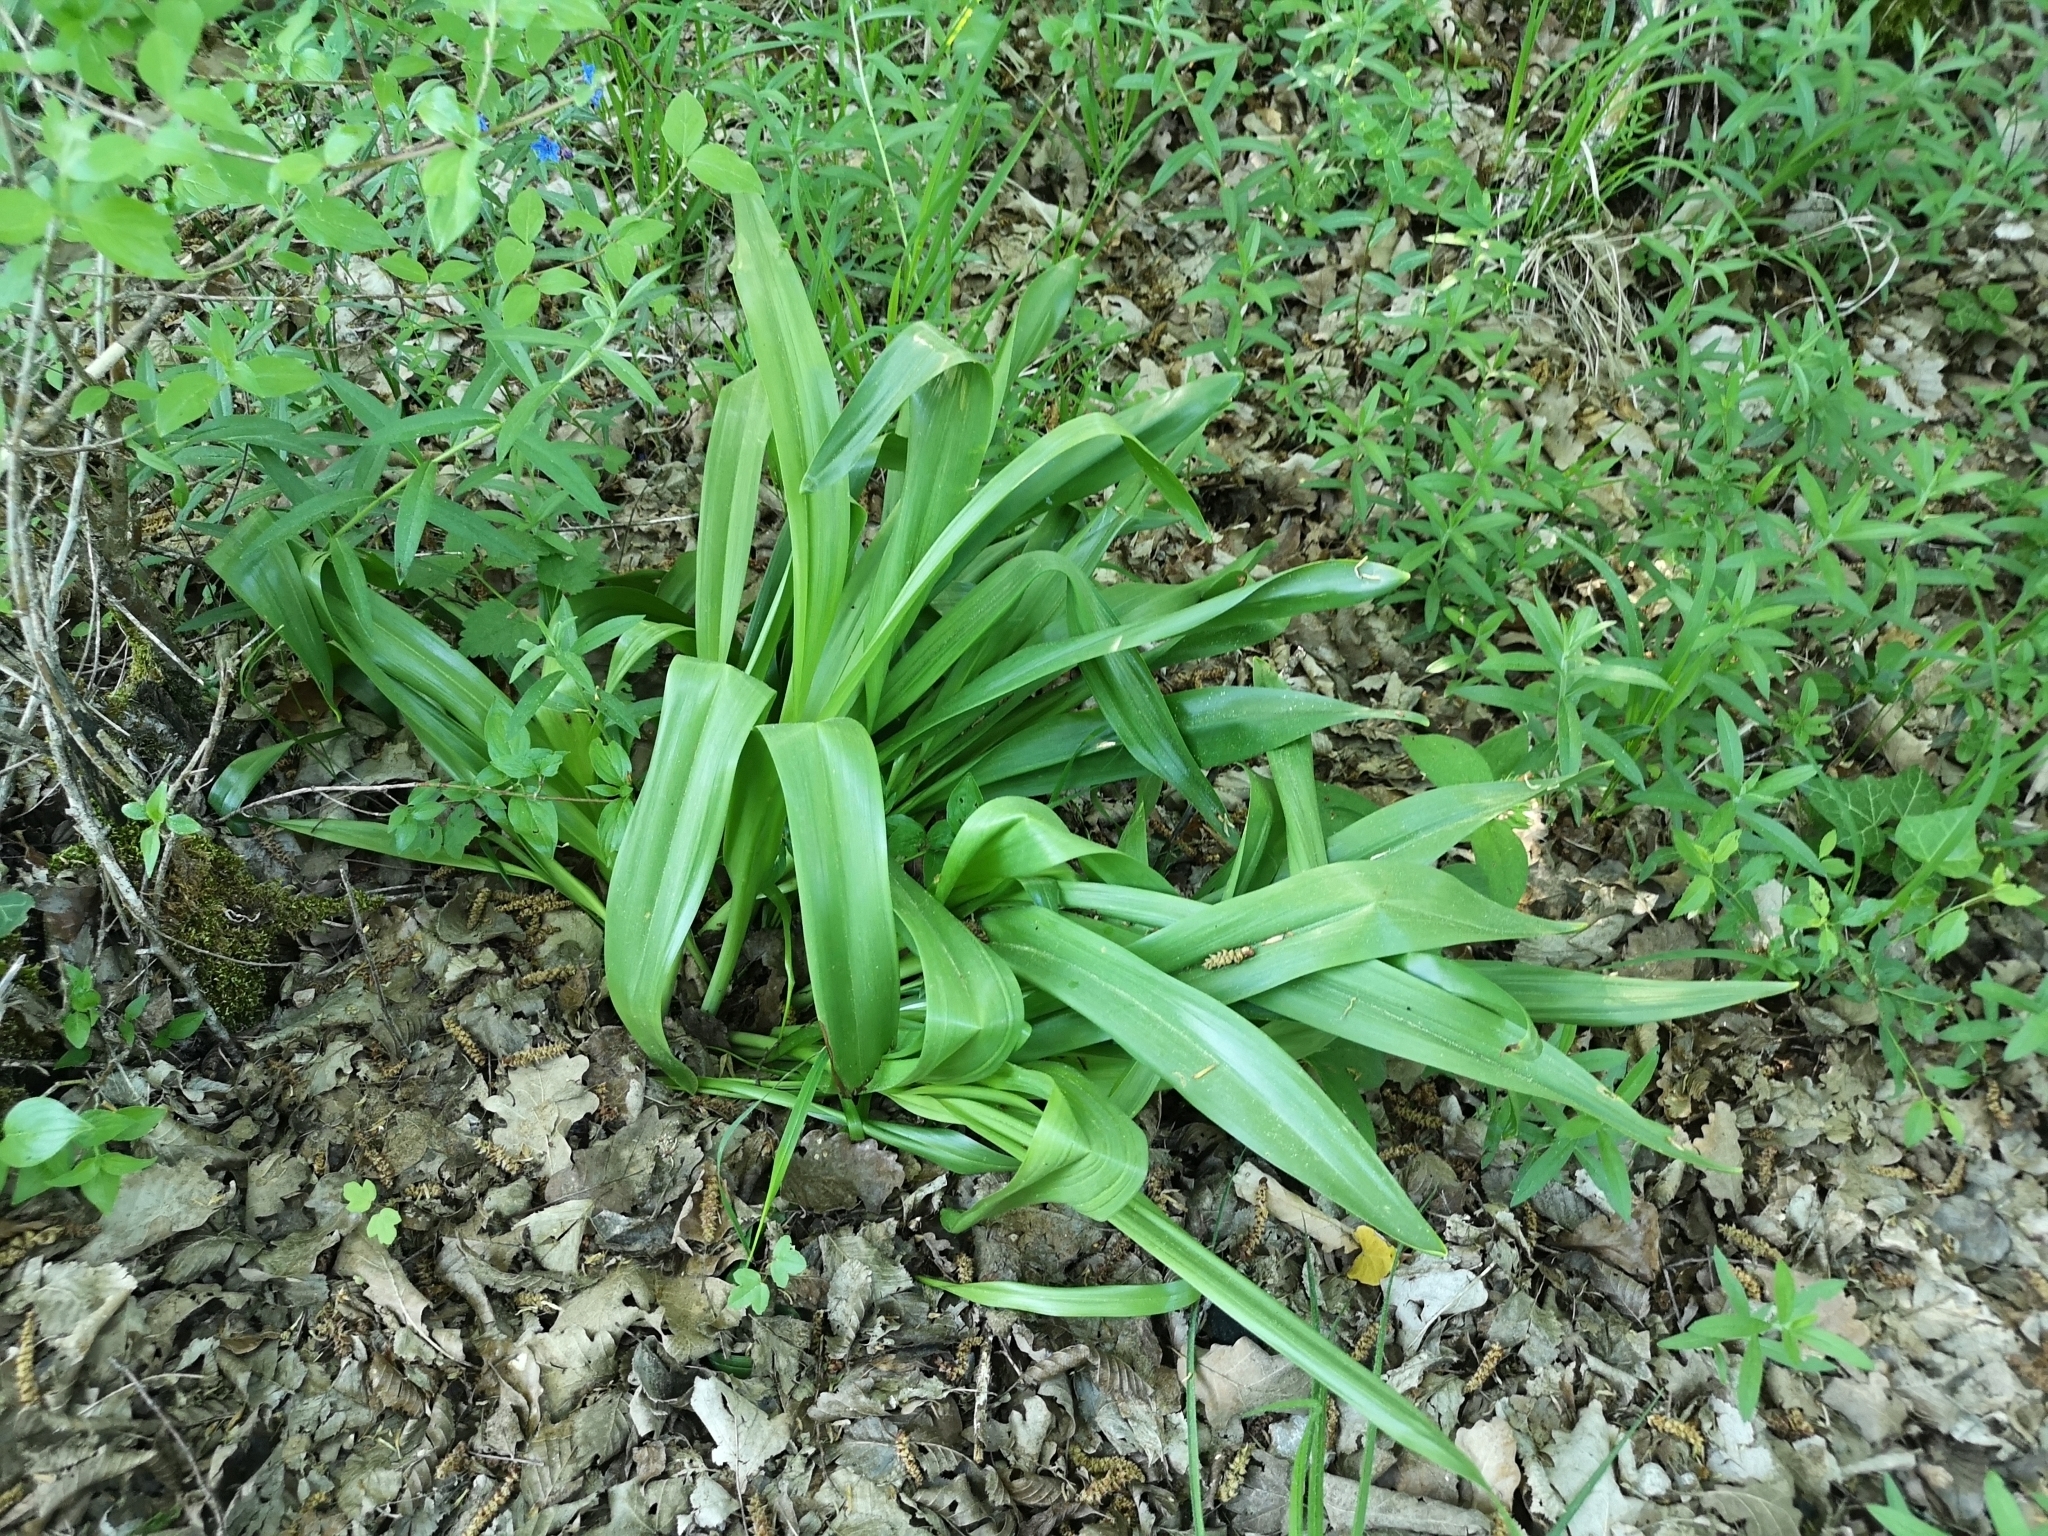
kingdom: Plantae
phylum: Tracheophyta
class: Liliopsida
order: Liliales
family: Colchicaceae
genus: Colchicum
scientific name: Colchicum autumnale
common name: Autumn crocus
